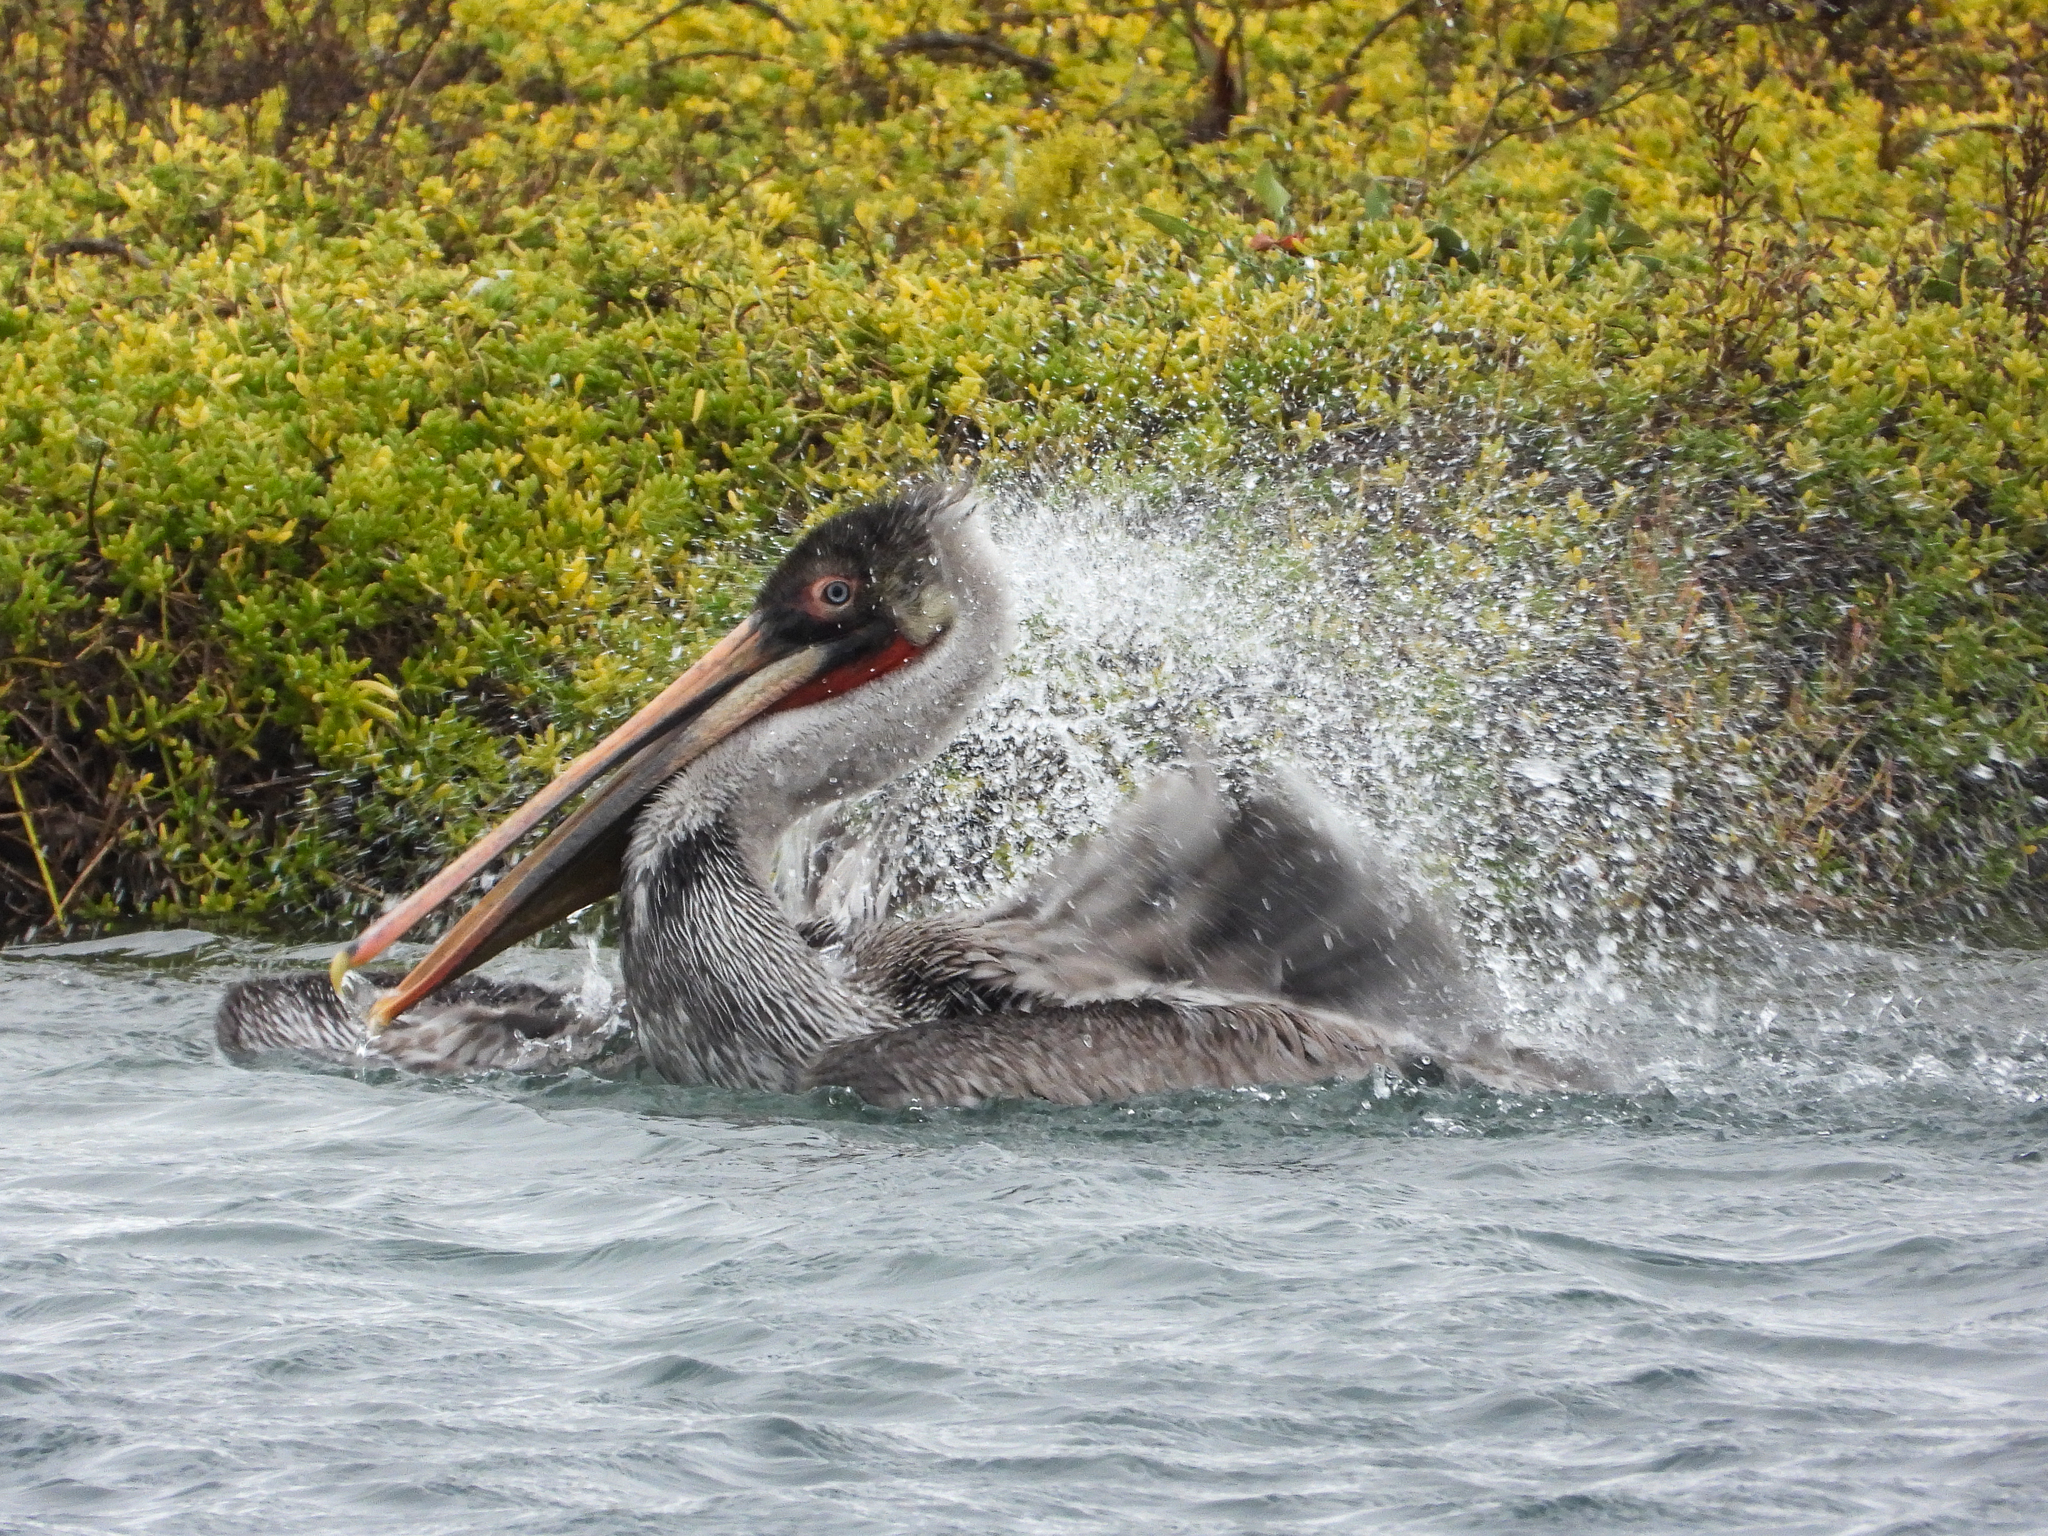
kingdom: Animalia
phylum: Chordata
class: Aves
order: Pelecaniformes
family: Pelecanidae
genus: Pelecanus
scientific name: Pelecanus occidentalis
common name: Brown pelican
